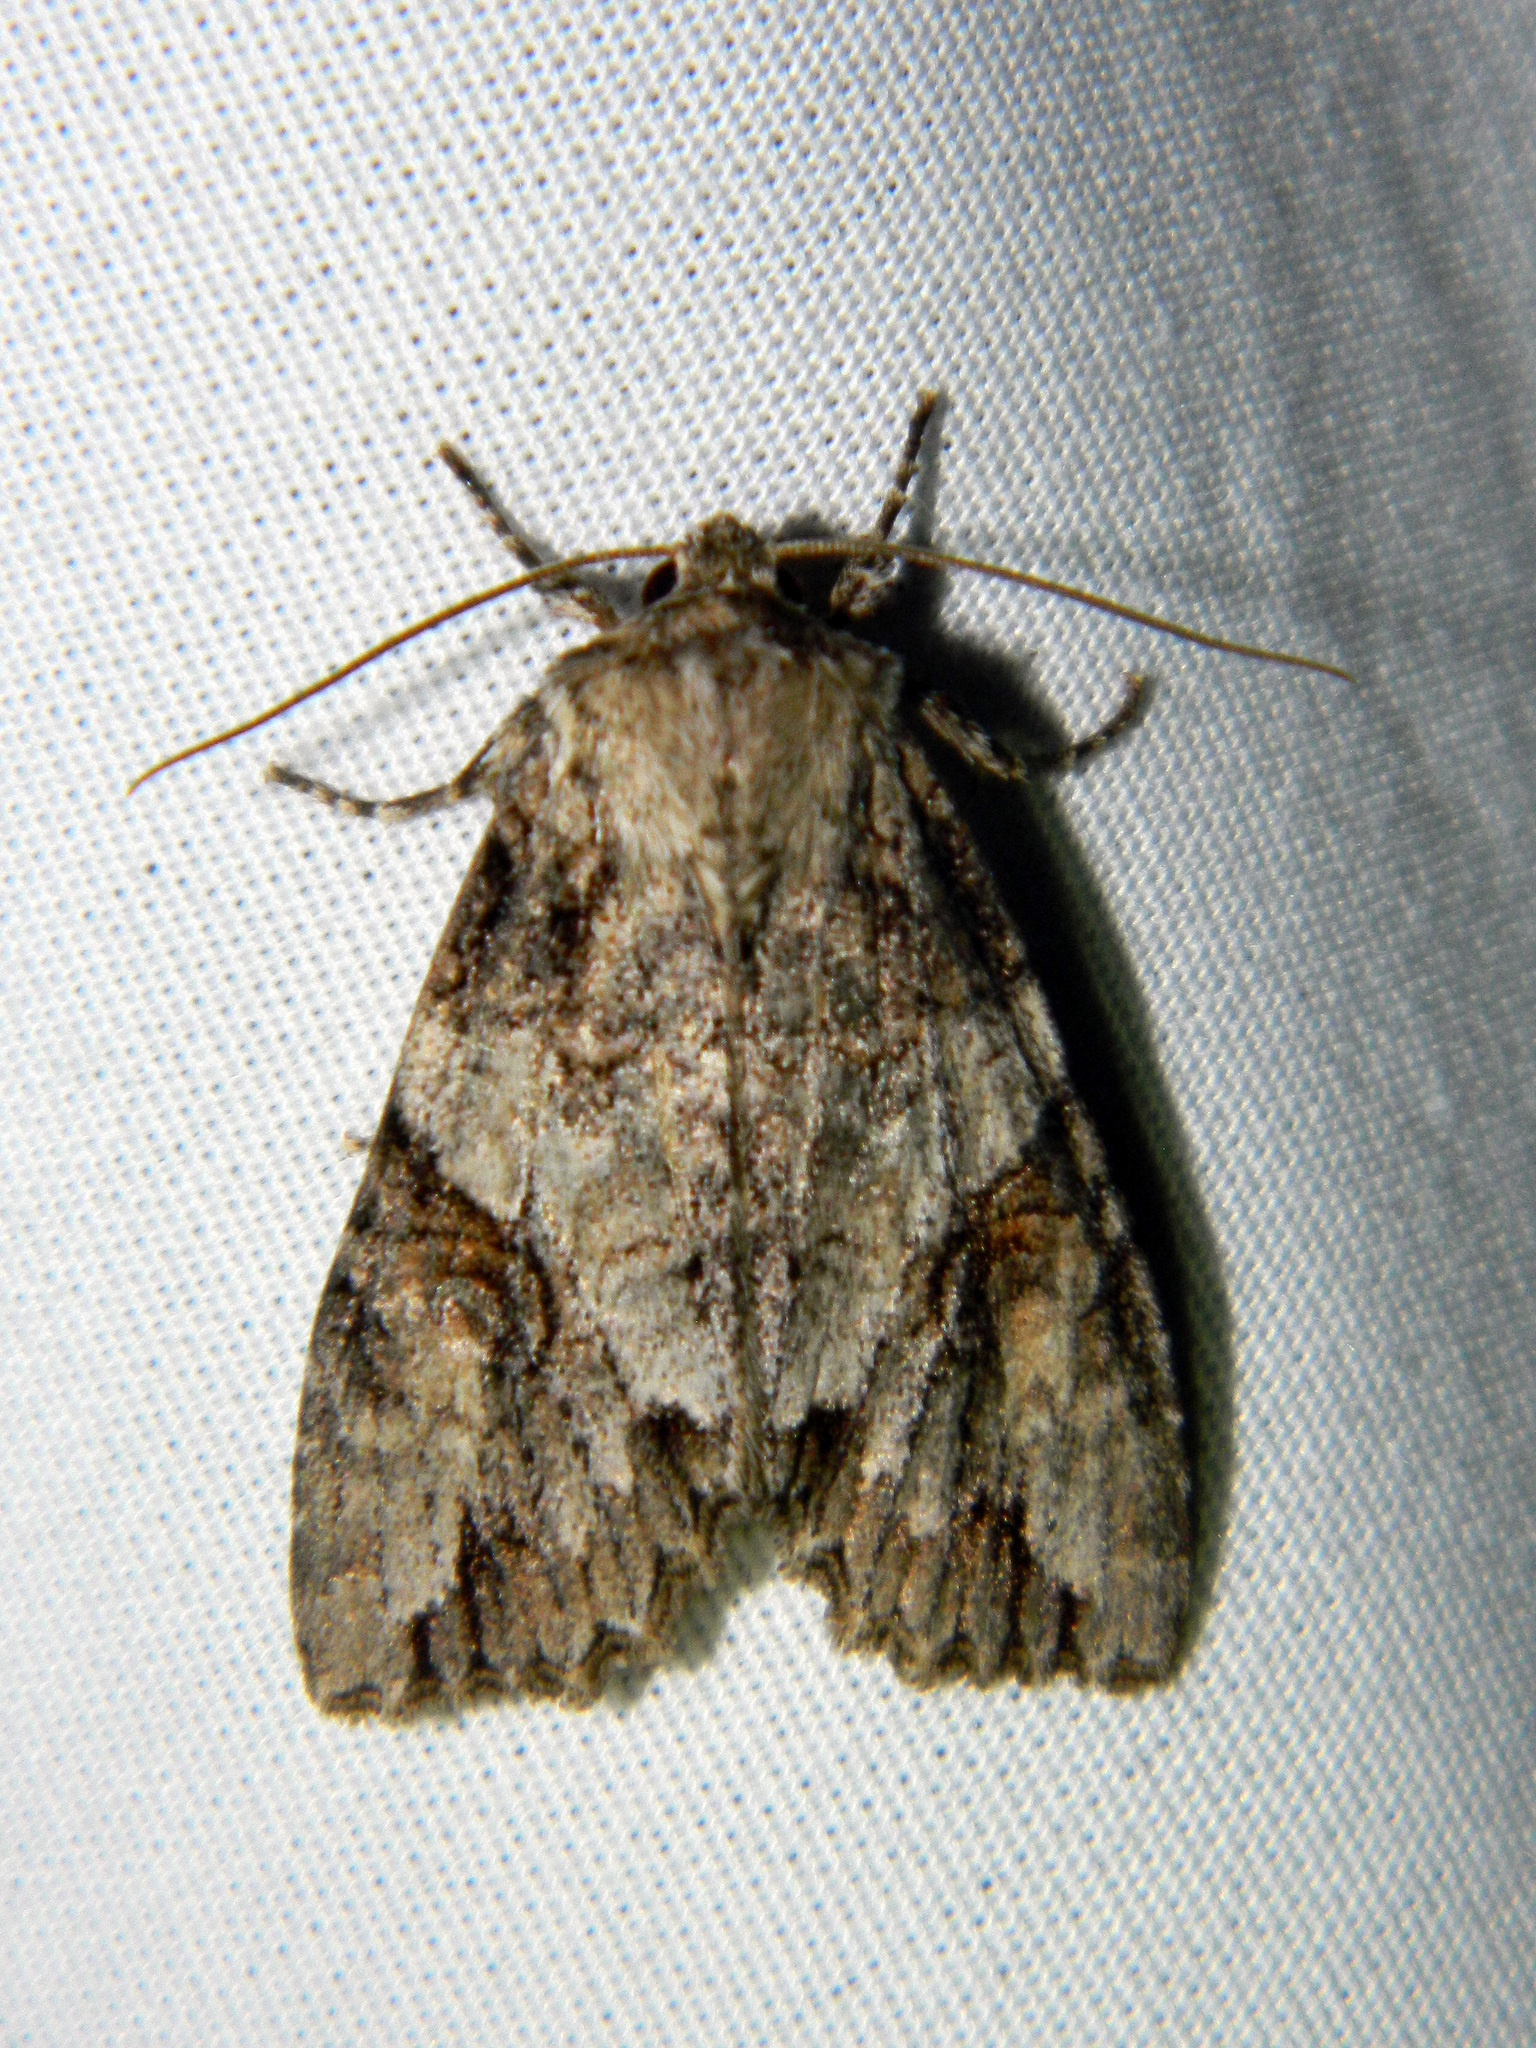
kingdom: Animalia
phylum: Arthropoda
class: Insecta
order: Lepidoptera
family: Noctuidae
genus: Achatia
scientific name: Achatia latex
